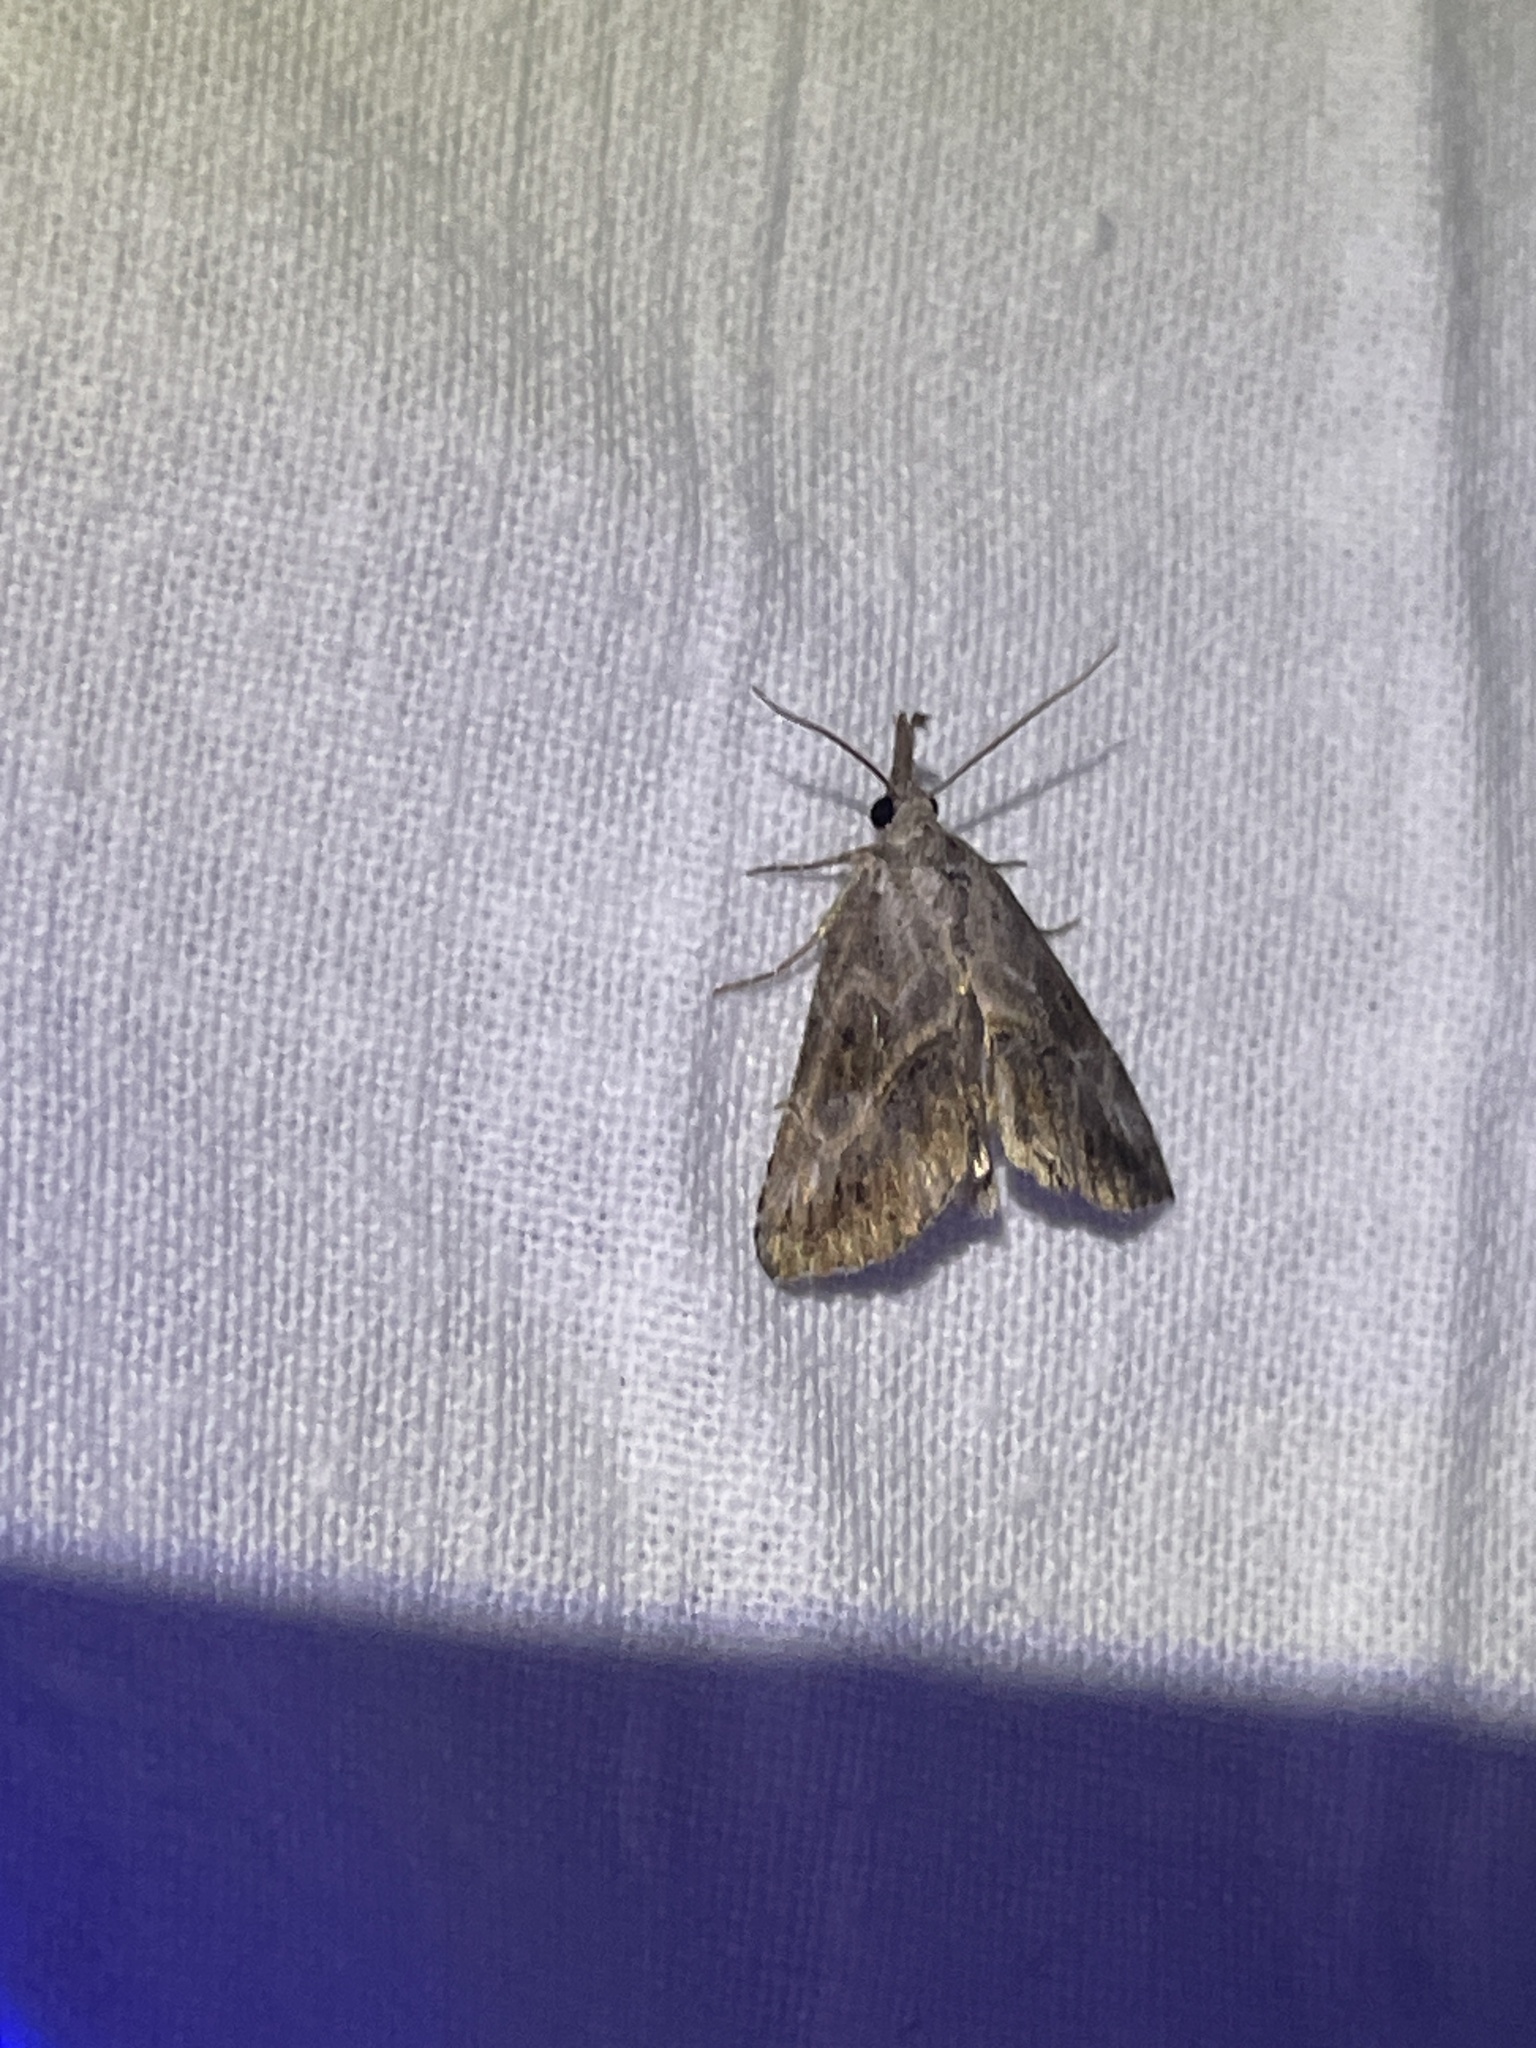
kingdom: Animalia
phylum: Arthropoda
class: Insecta
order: Lepidoptera
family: Erebidae
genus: Zekelita
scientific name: Zekelita antiqualis
